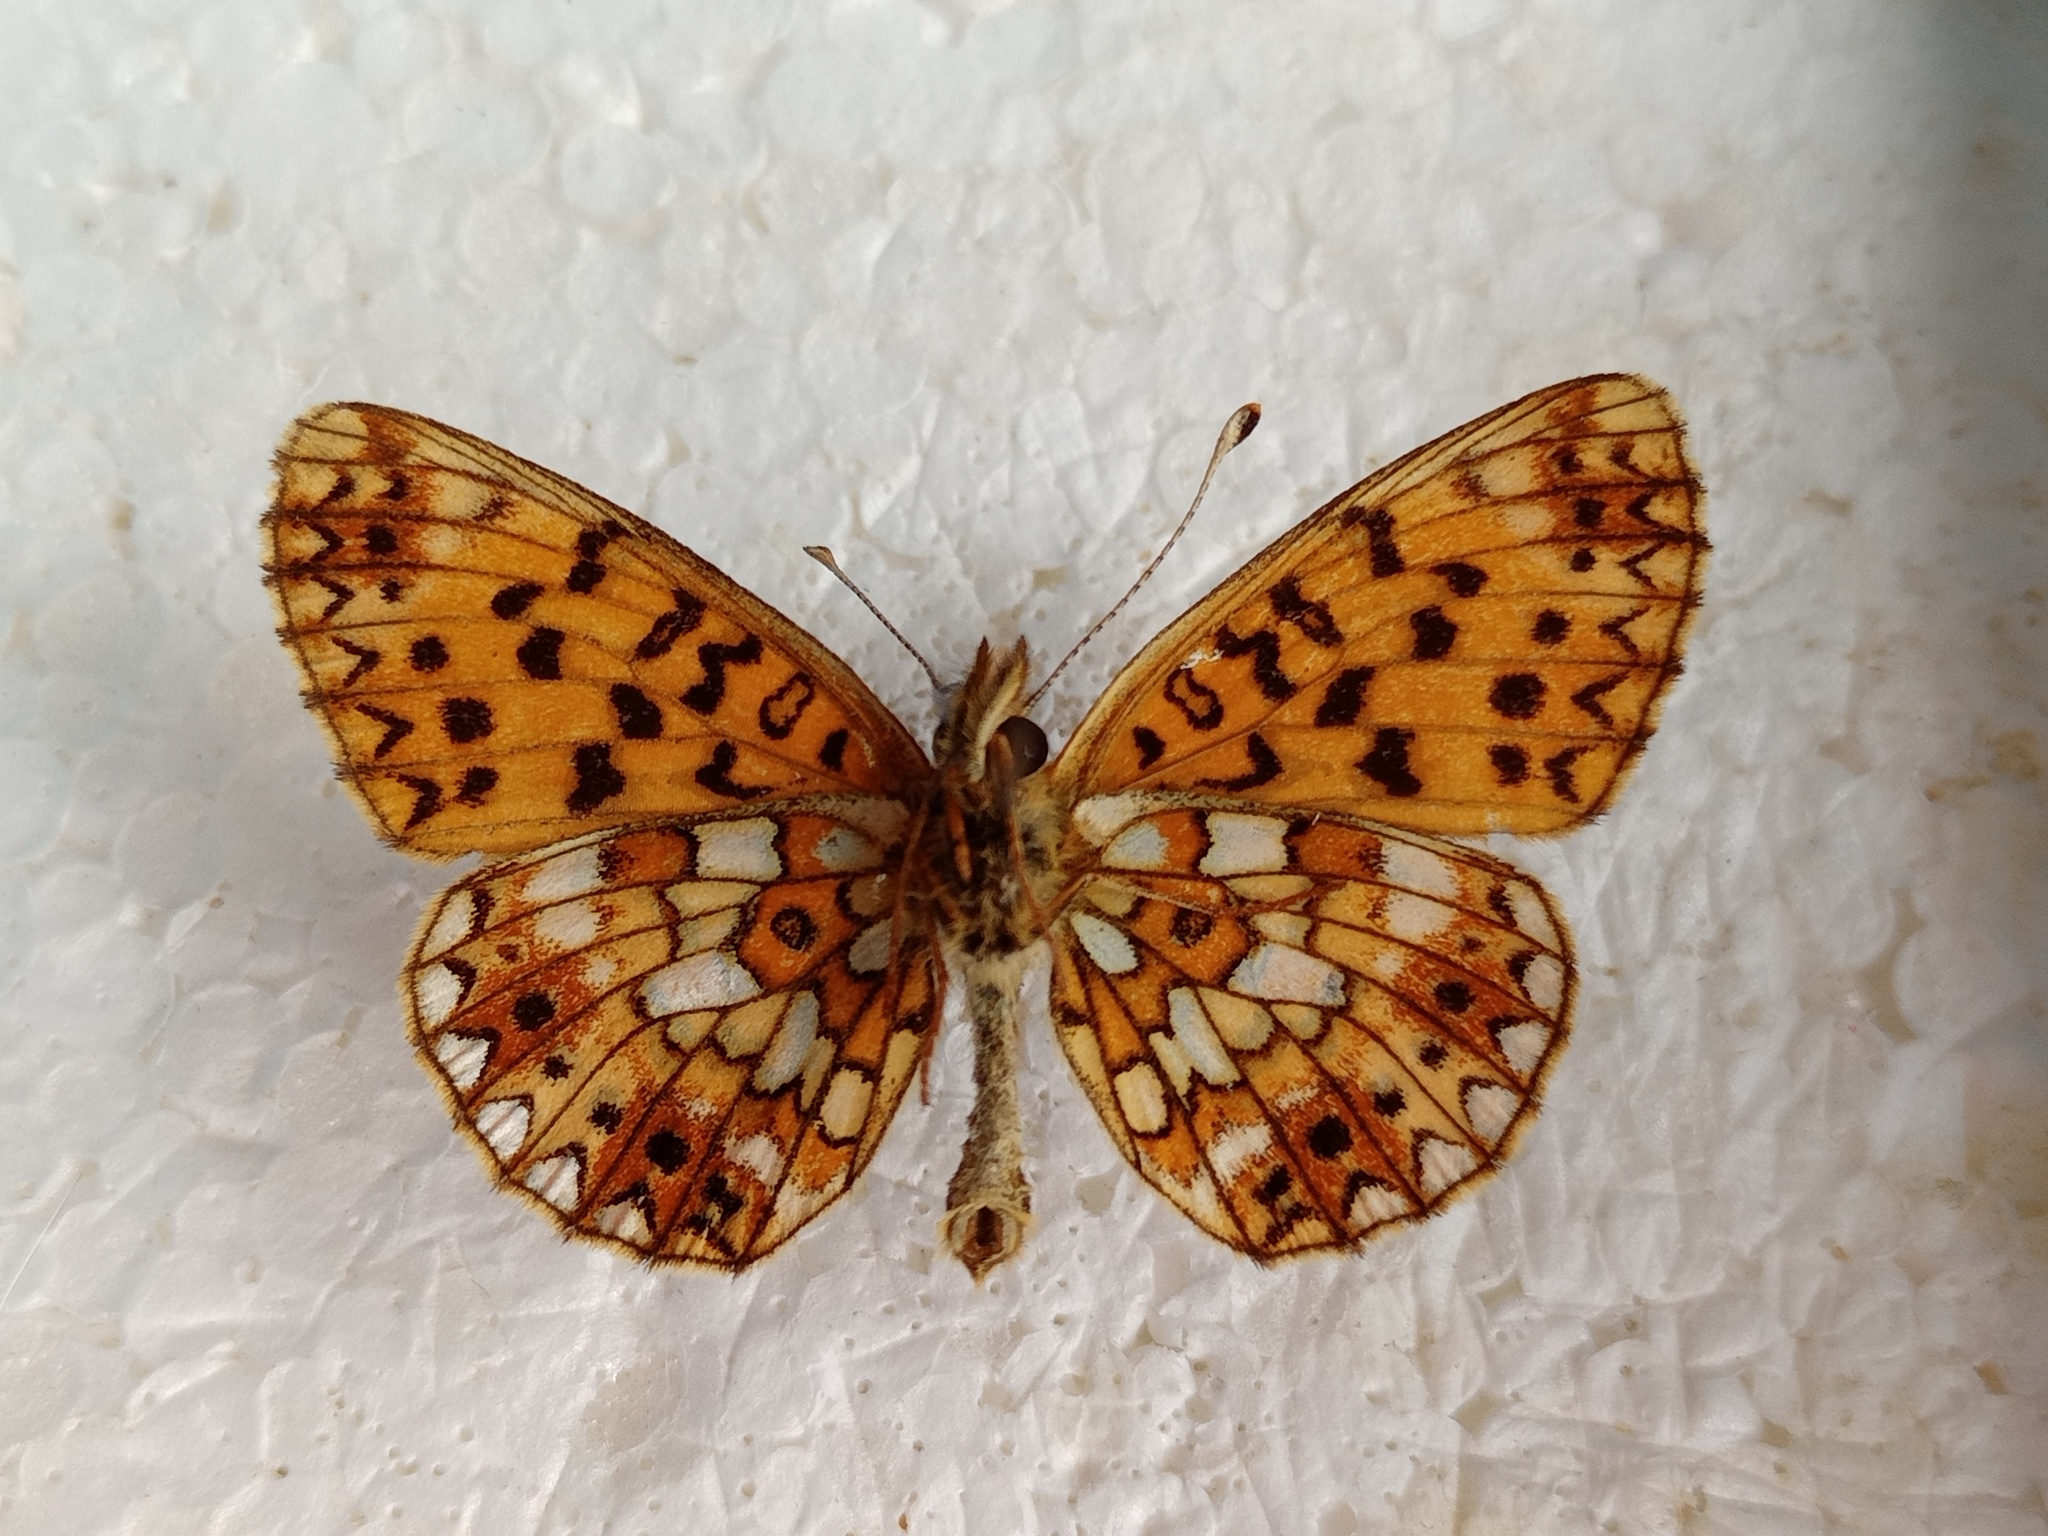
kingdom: Animalia
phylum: Arthropoda
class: Insecta
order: Lepidoptera
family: Nymphalidae
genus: Boloria
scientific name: Boloria selene
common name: Small pearl-bordered fritillary
